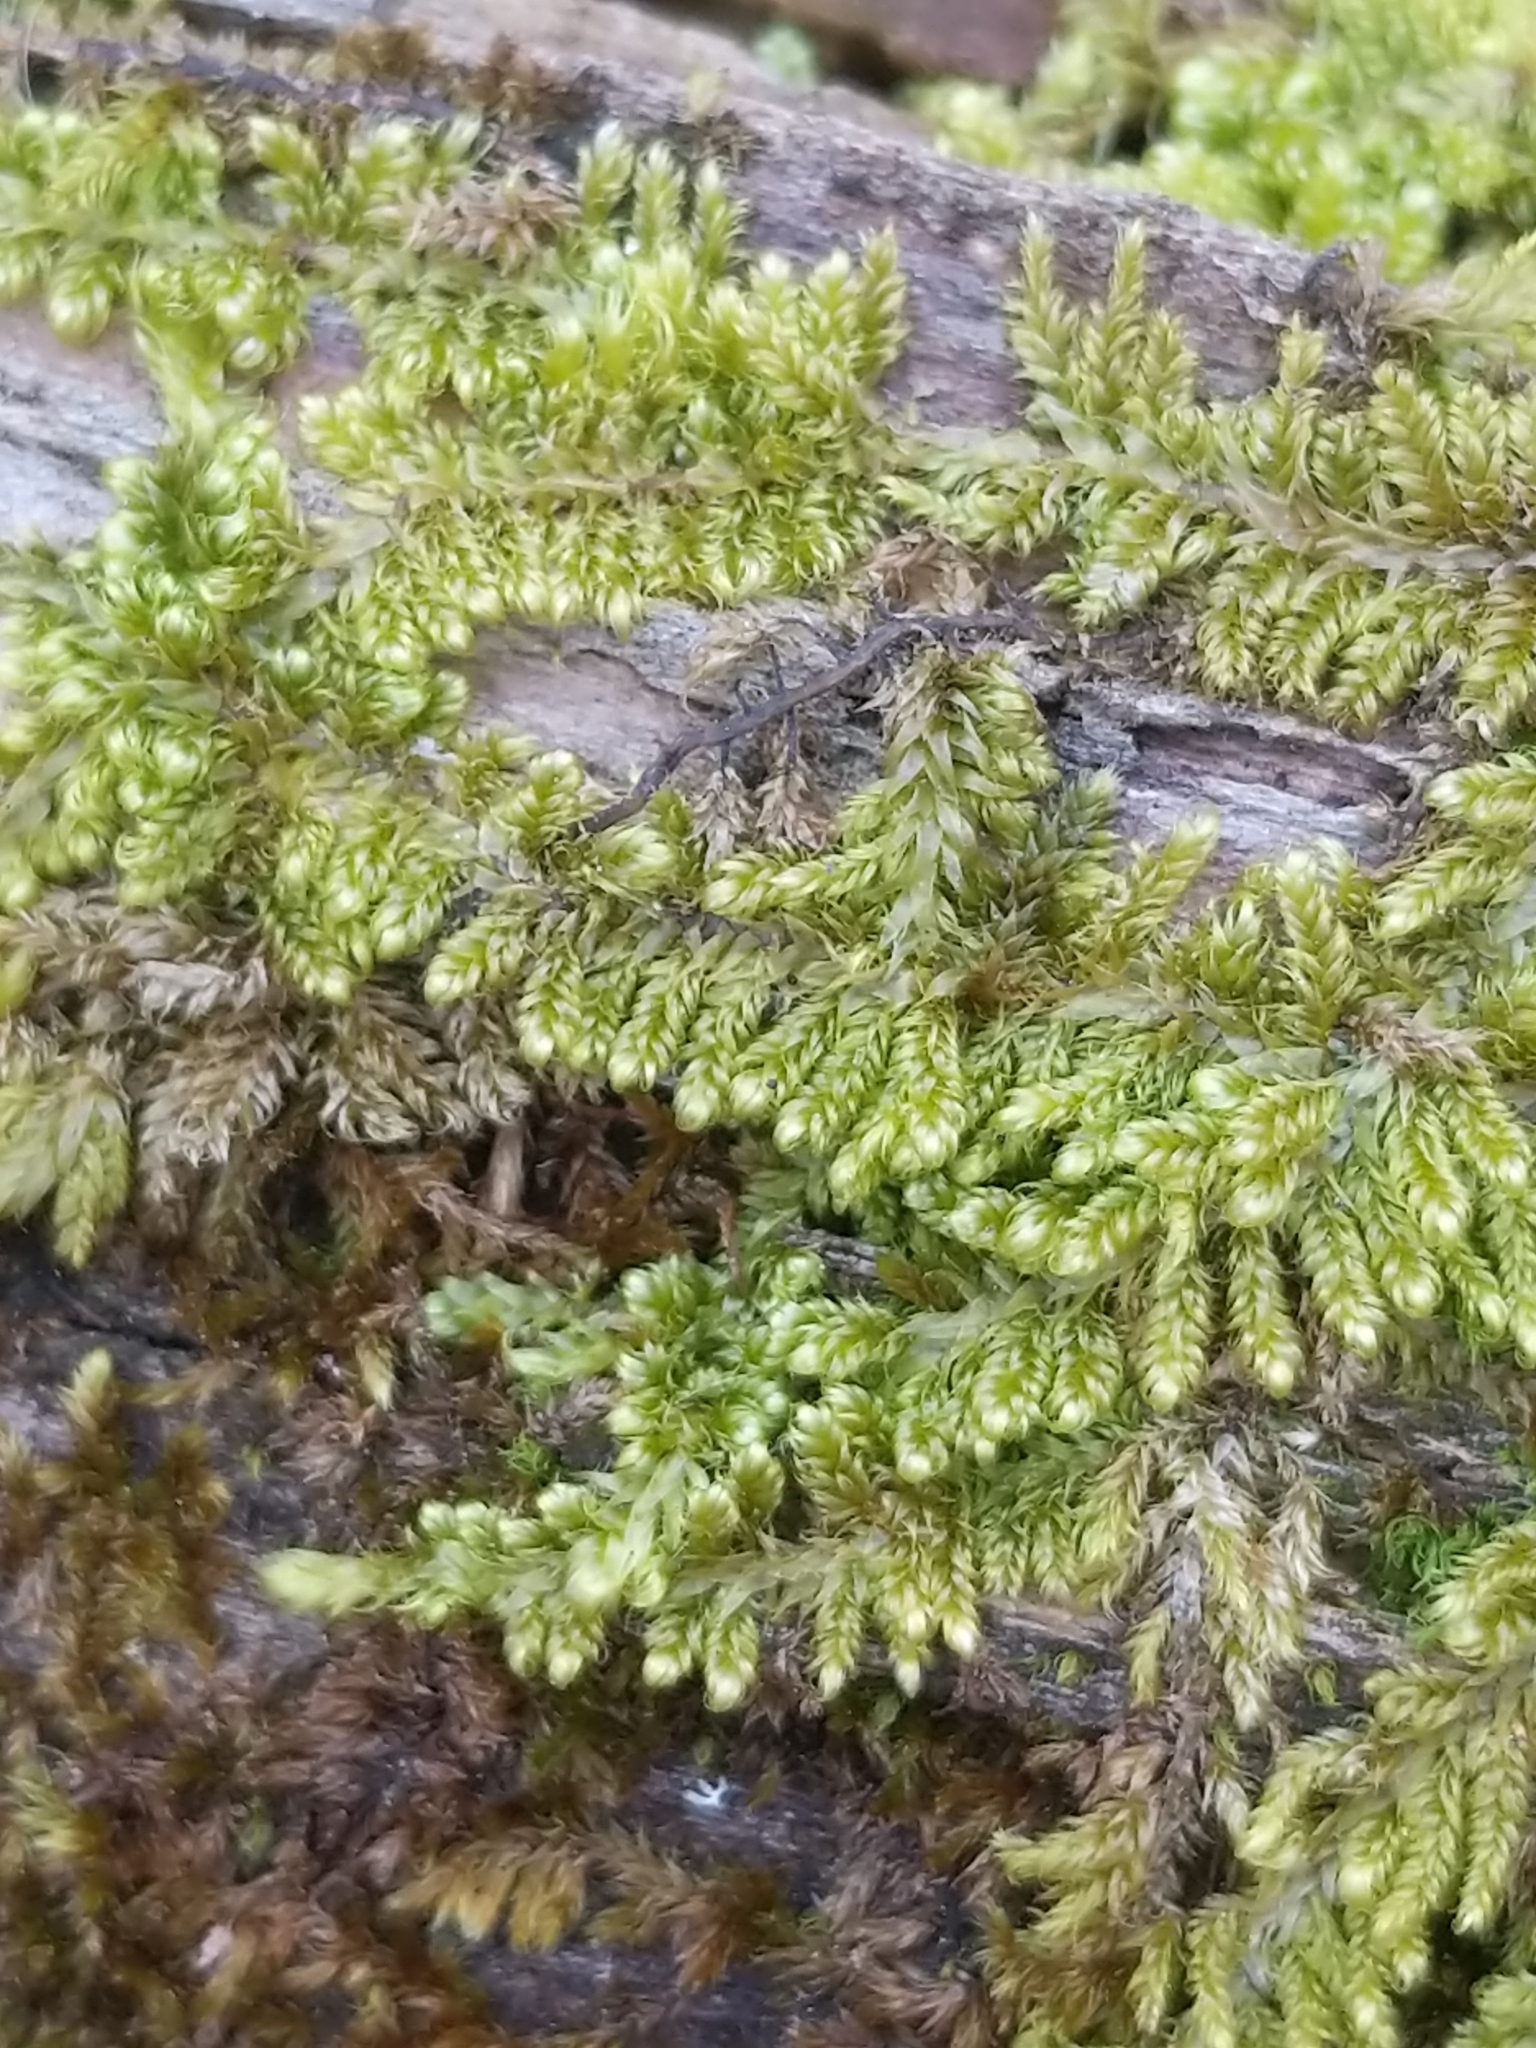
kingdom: Plantae
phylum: Bryophyta
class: Bryopsida
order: Hypnales
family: Callicladiaceae
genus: Callicladium
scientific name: Callicladium imponens
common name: Brocade moss
